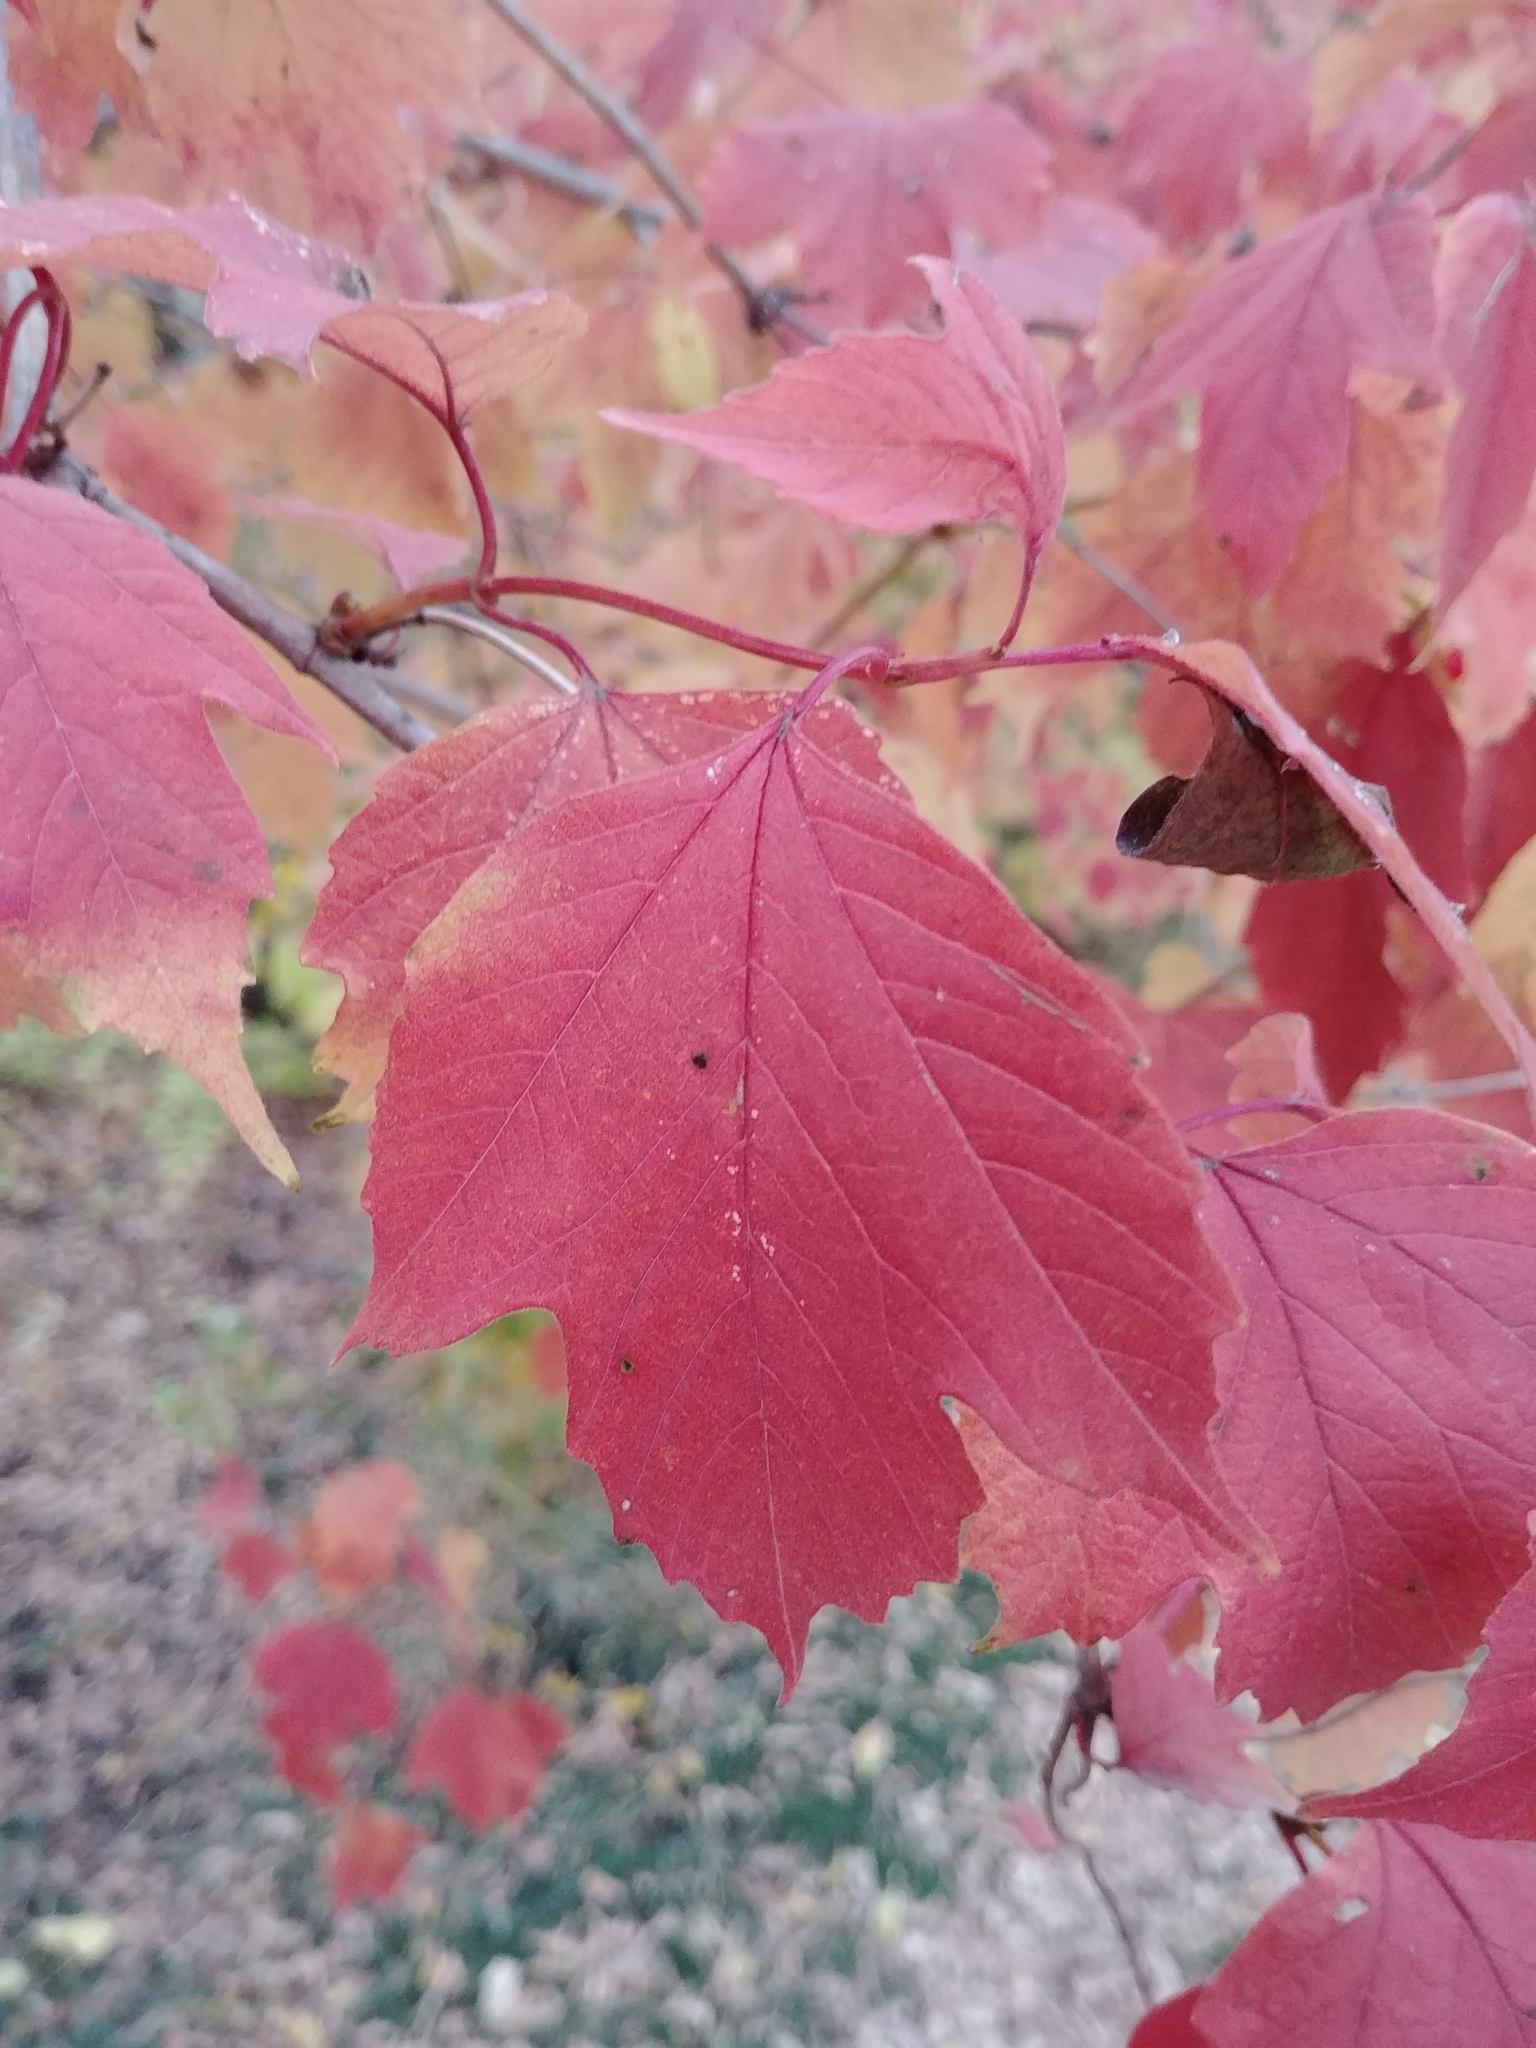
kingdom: Plantae
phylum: Tracheophyta
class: Magnoliopsida
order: Dipsacales
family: Viburnaceae
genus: Viburnum
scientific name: Viburnum opulus
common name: Guelder-rose
